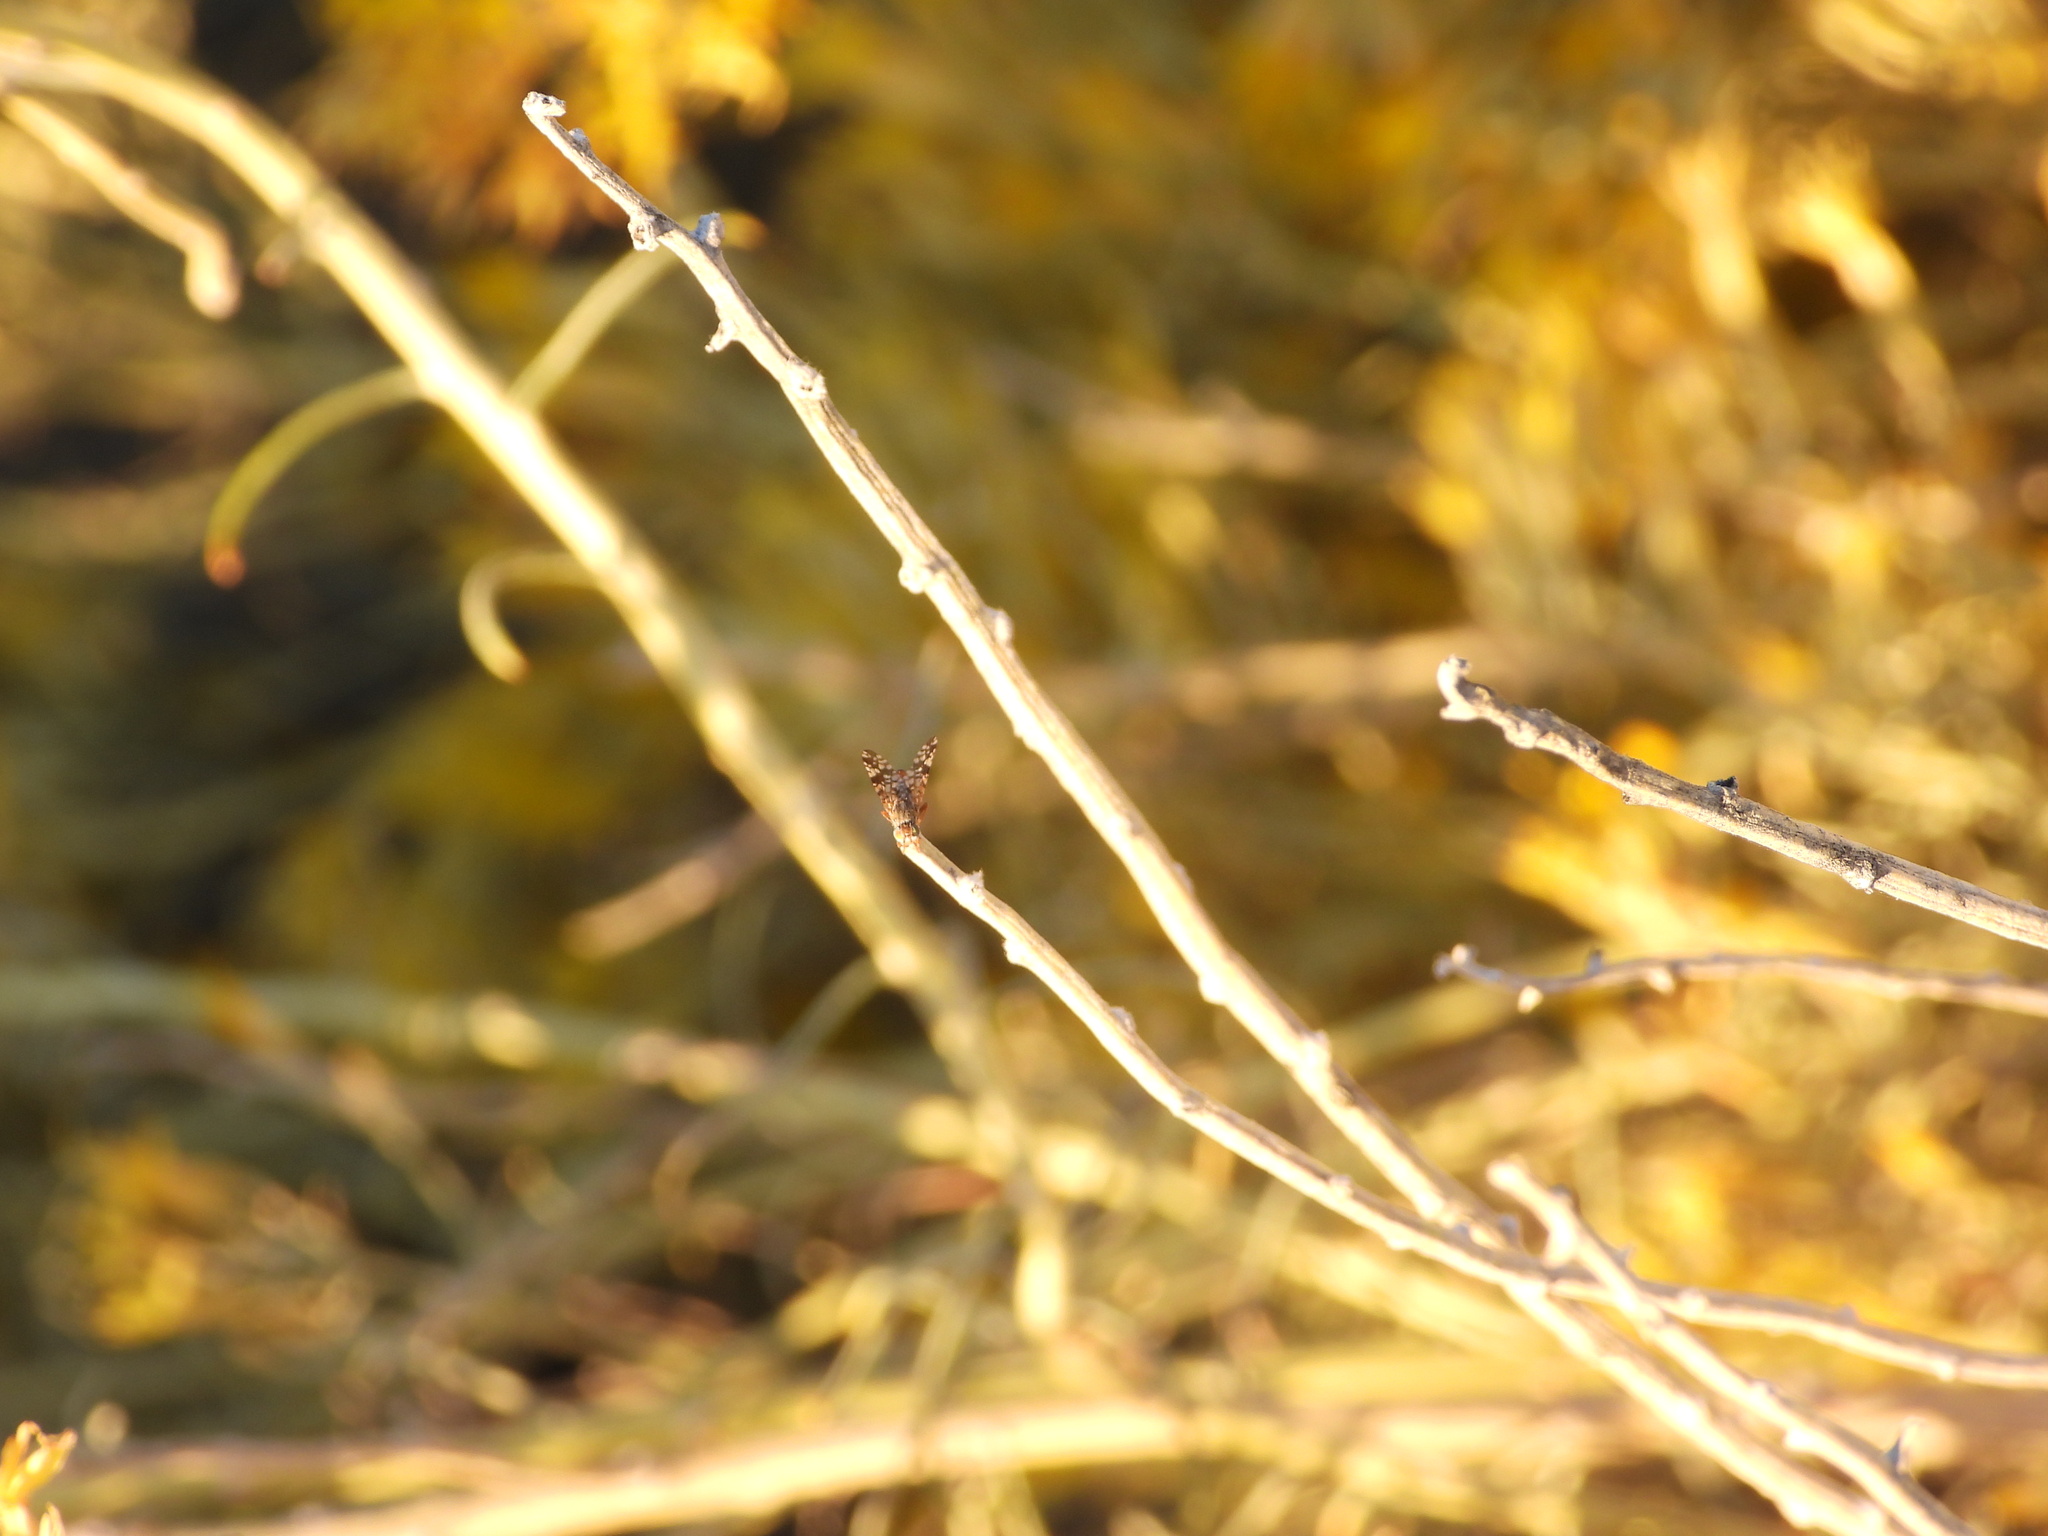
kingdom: Animalia
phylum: Arthropoda
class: Insecta
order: Diptera
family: Tephritidae
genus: Neotephritis
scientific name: Neotephritis finalis
